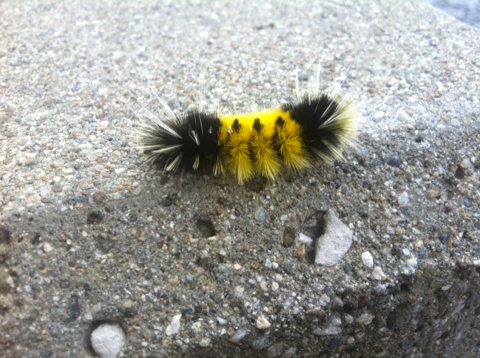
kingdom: Animalia
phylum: Arthropoda
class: Insecta
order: Lepidoptera
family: Erebidae
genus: Lophocampa
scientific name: Lophocampa maculata
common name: Spotted tussock moth
